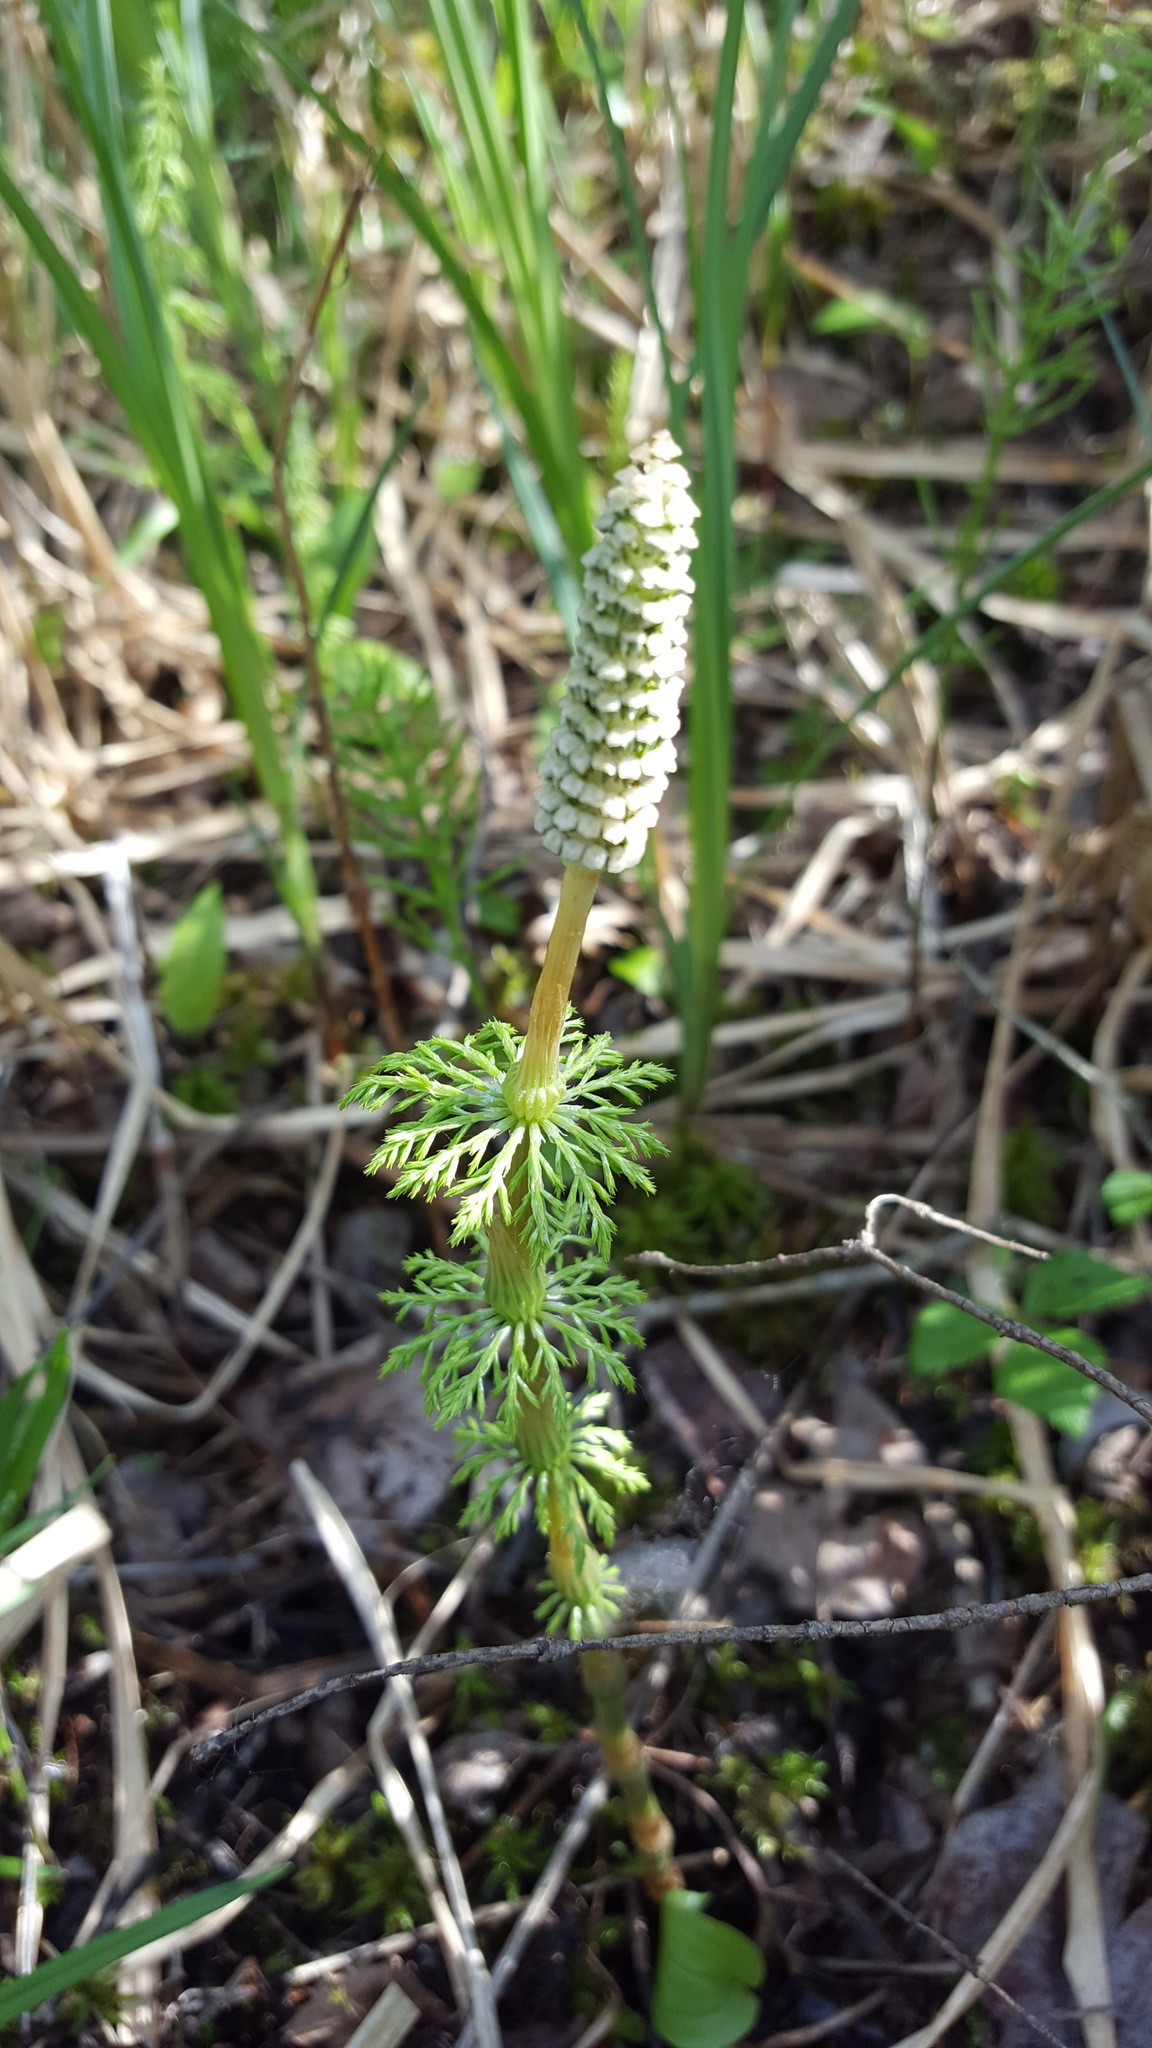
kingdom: Plantae
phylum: Tracheophyta
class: Polypodiopsida
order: Equisetales
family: Equisetaceae
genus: Equisetum
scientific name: Equisetum sylvaticum
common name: Wood horsetail
